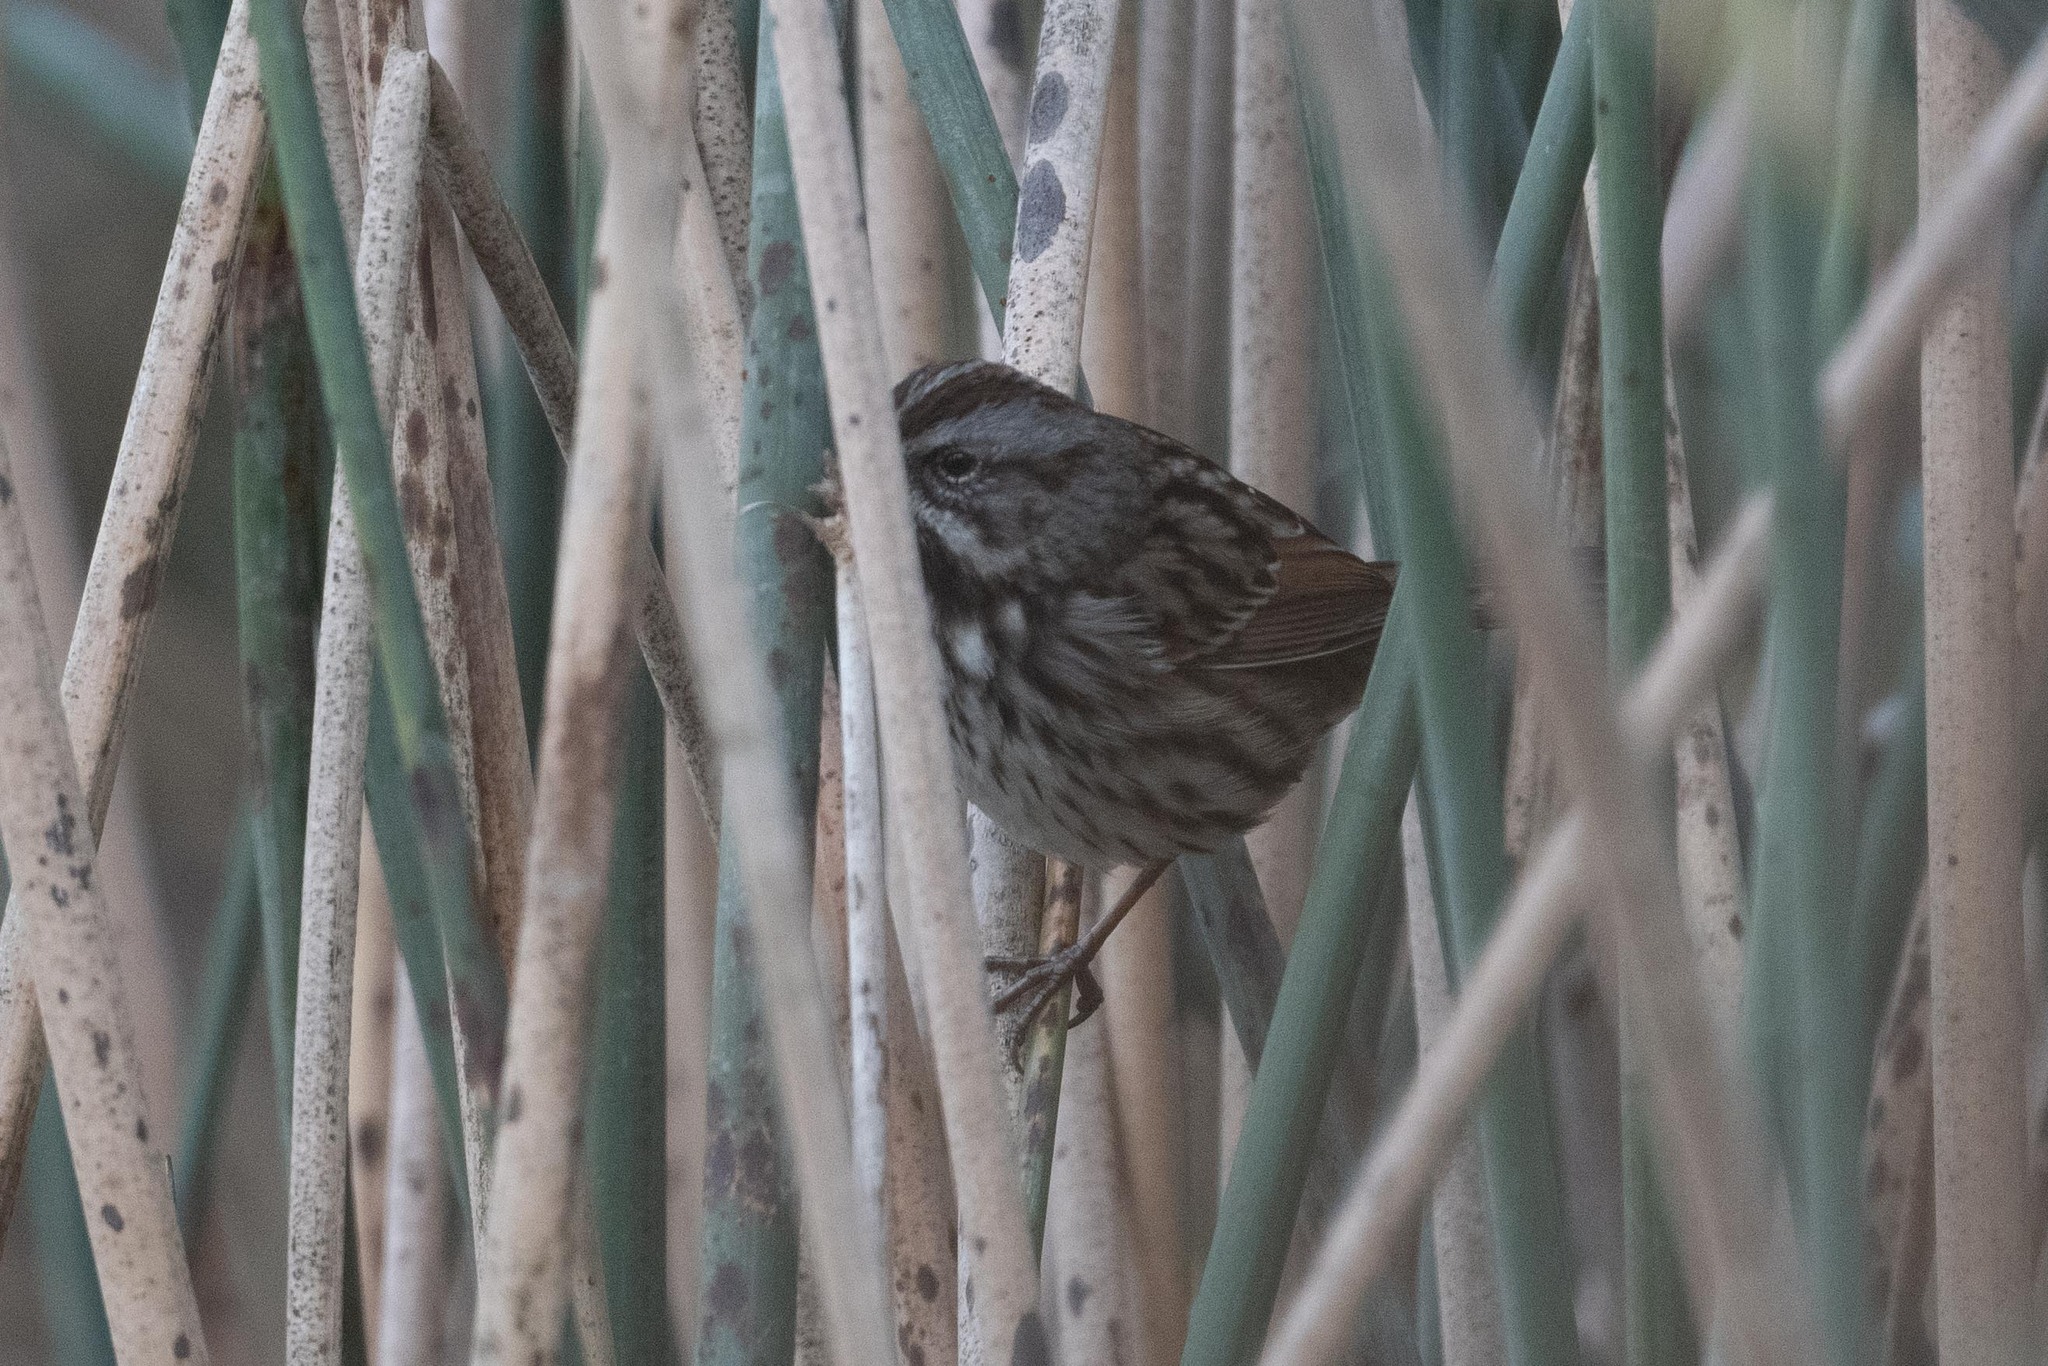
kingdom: Animalia
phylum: Chordata
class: Aves
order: Passeriformes
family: Passerellidae
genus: Melospiza
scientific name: Melospiza melodia
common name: Song sparrow
